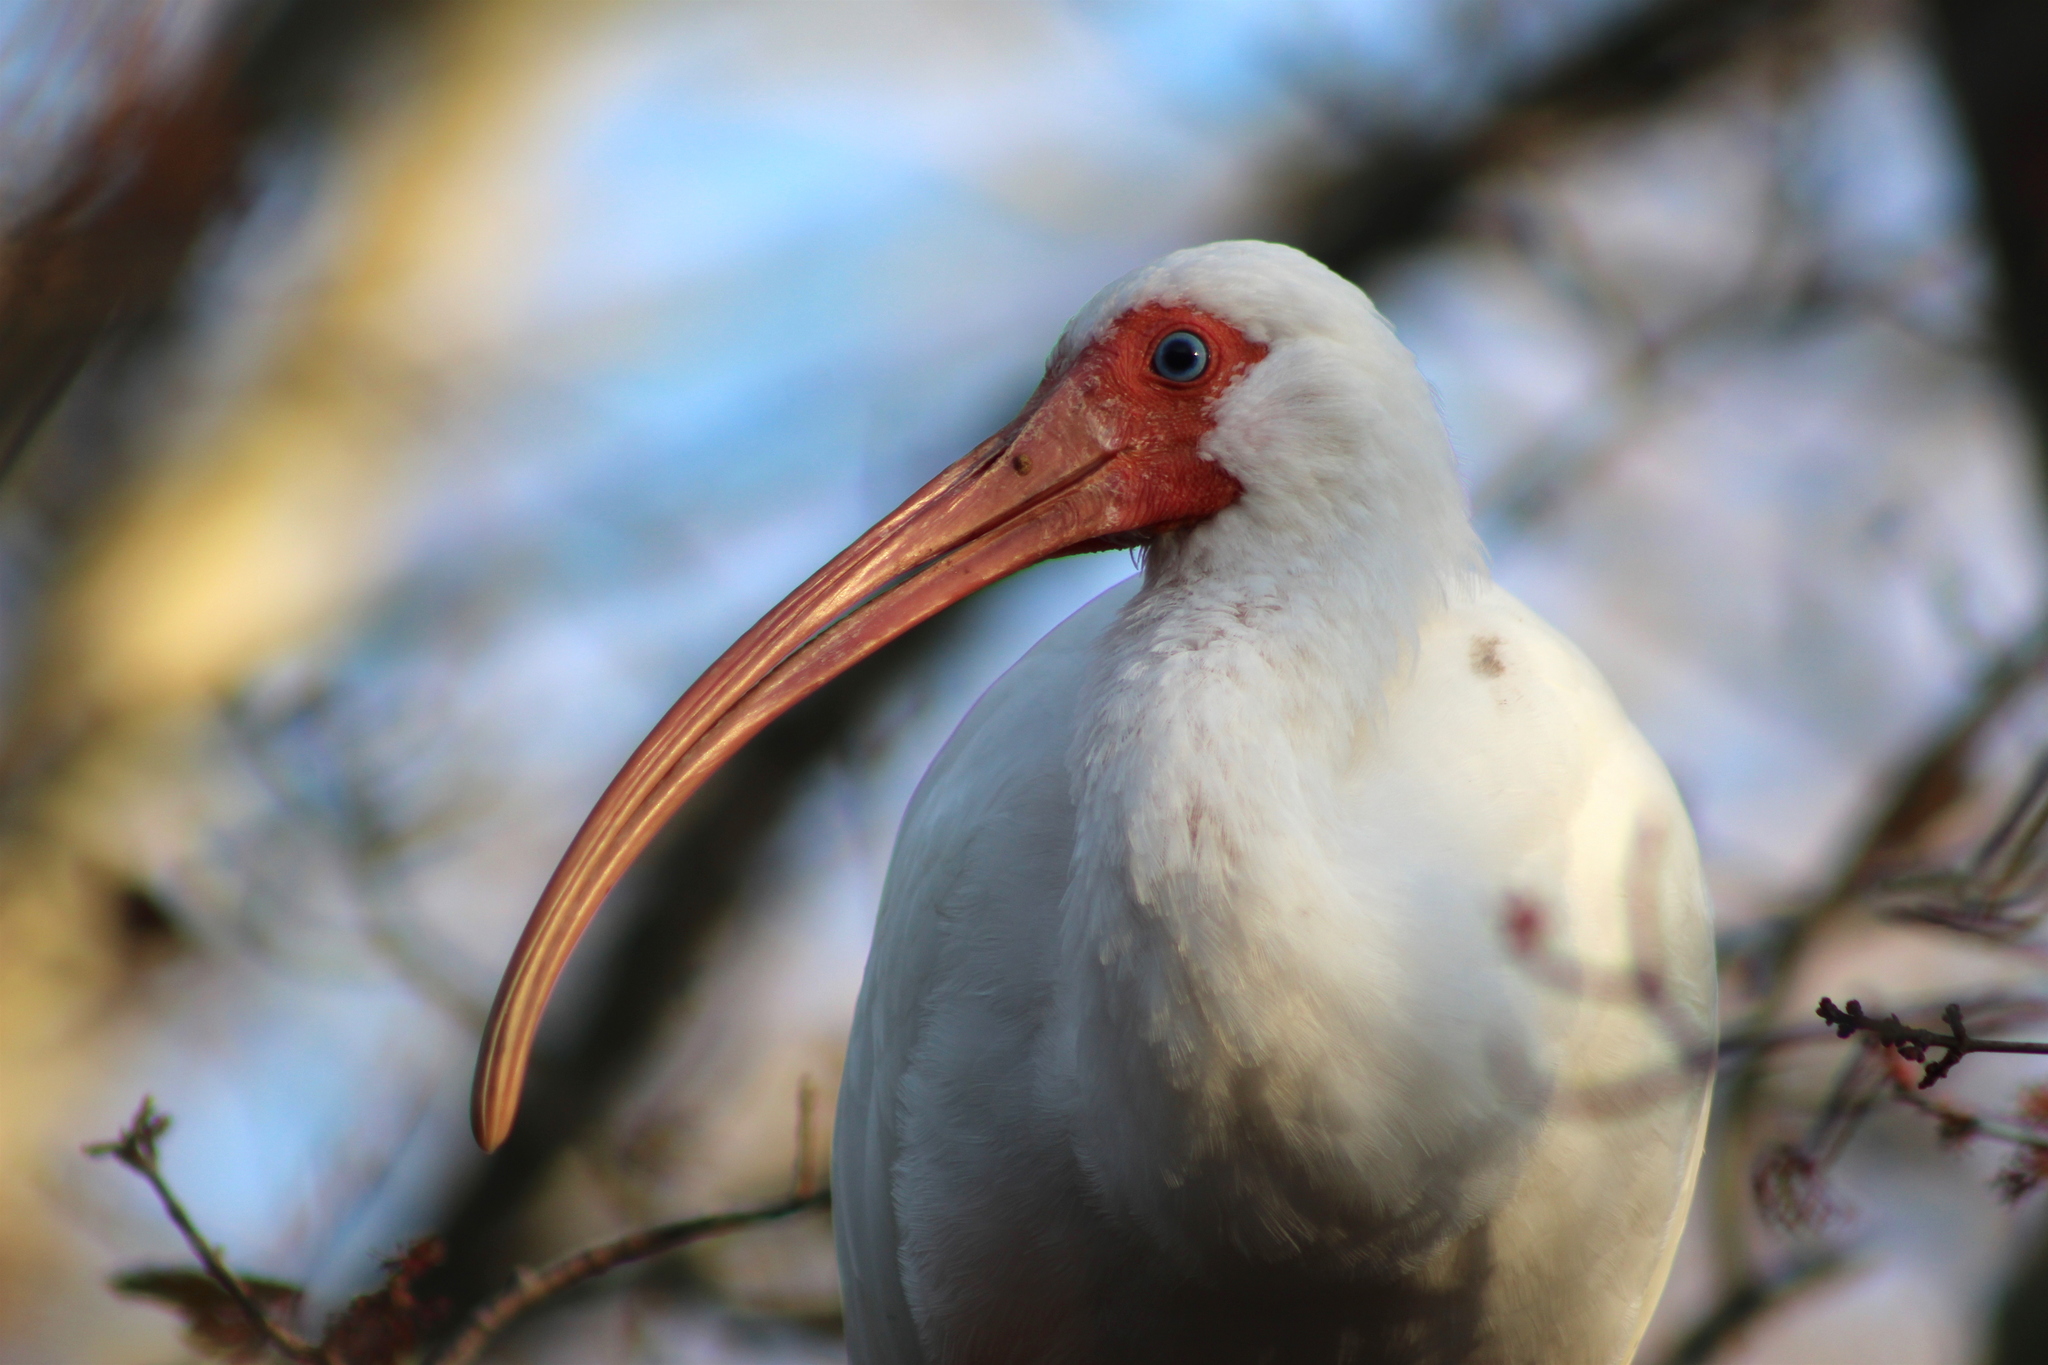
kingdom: Animalia
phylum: Chordata
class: Aves
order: Pelecaniformes
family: Threskiornithidae
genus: Eudocimus
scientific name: Eudocimus albus
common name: White ibis
